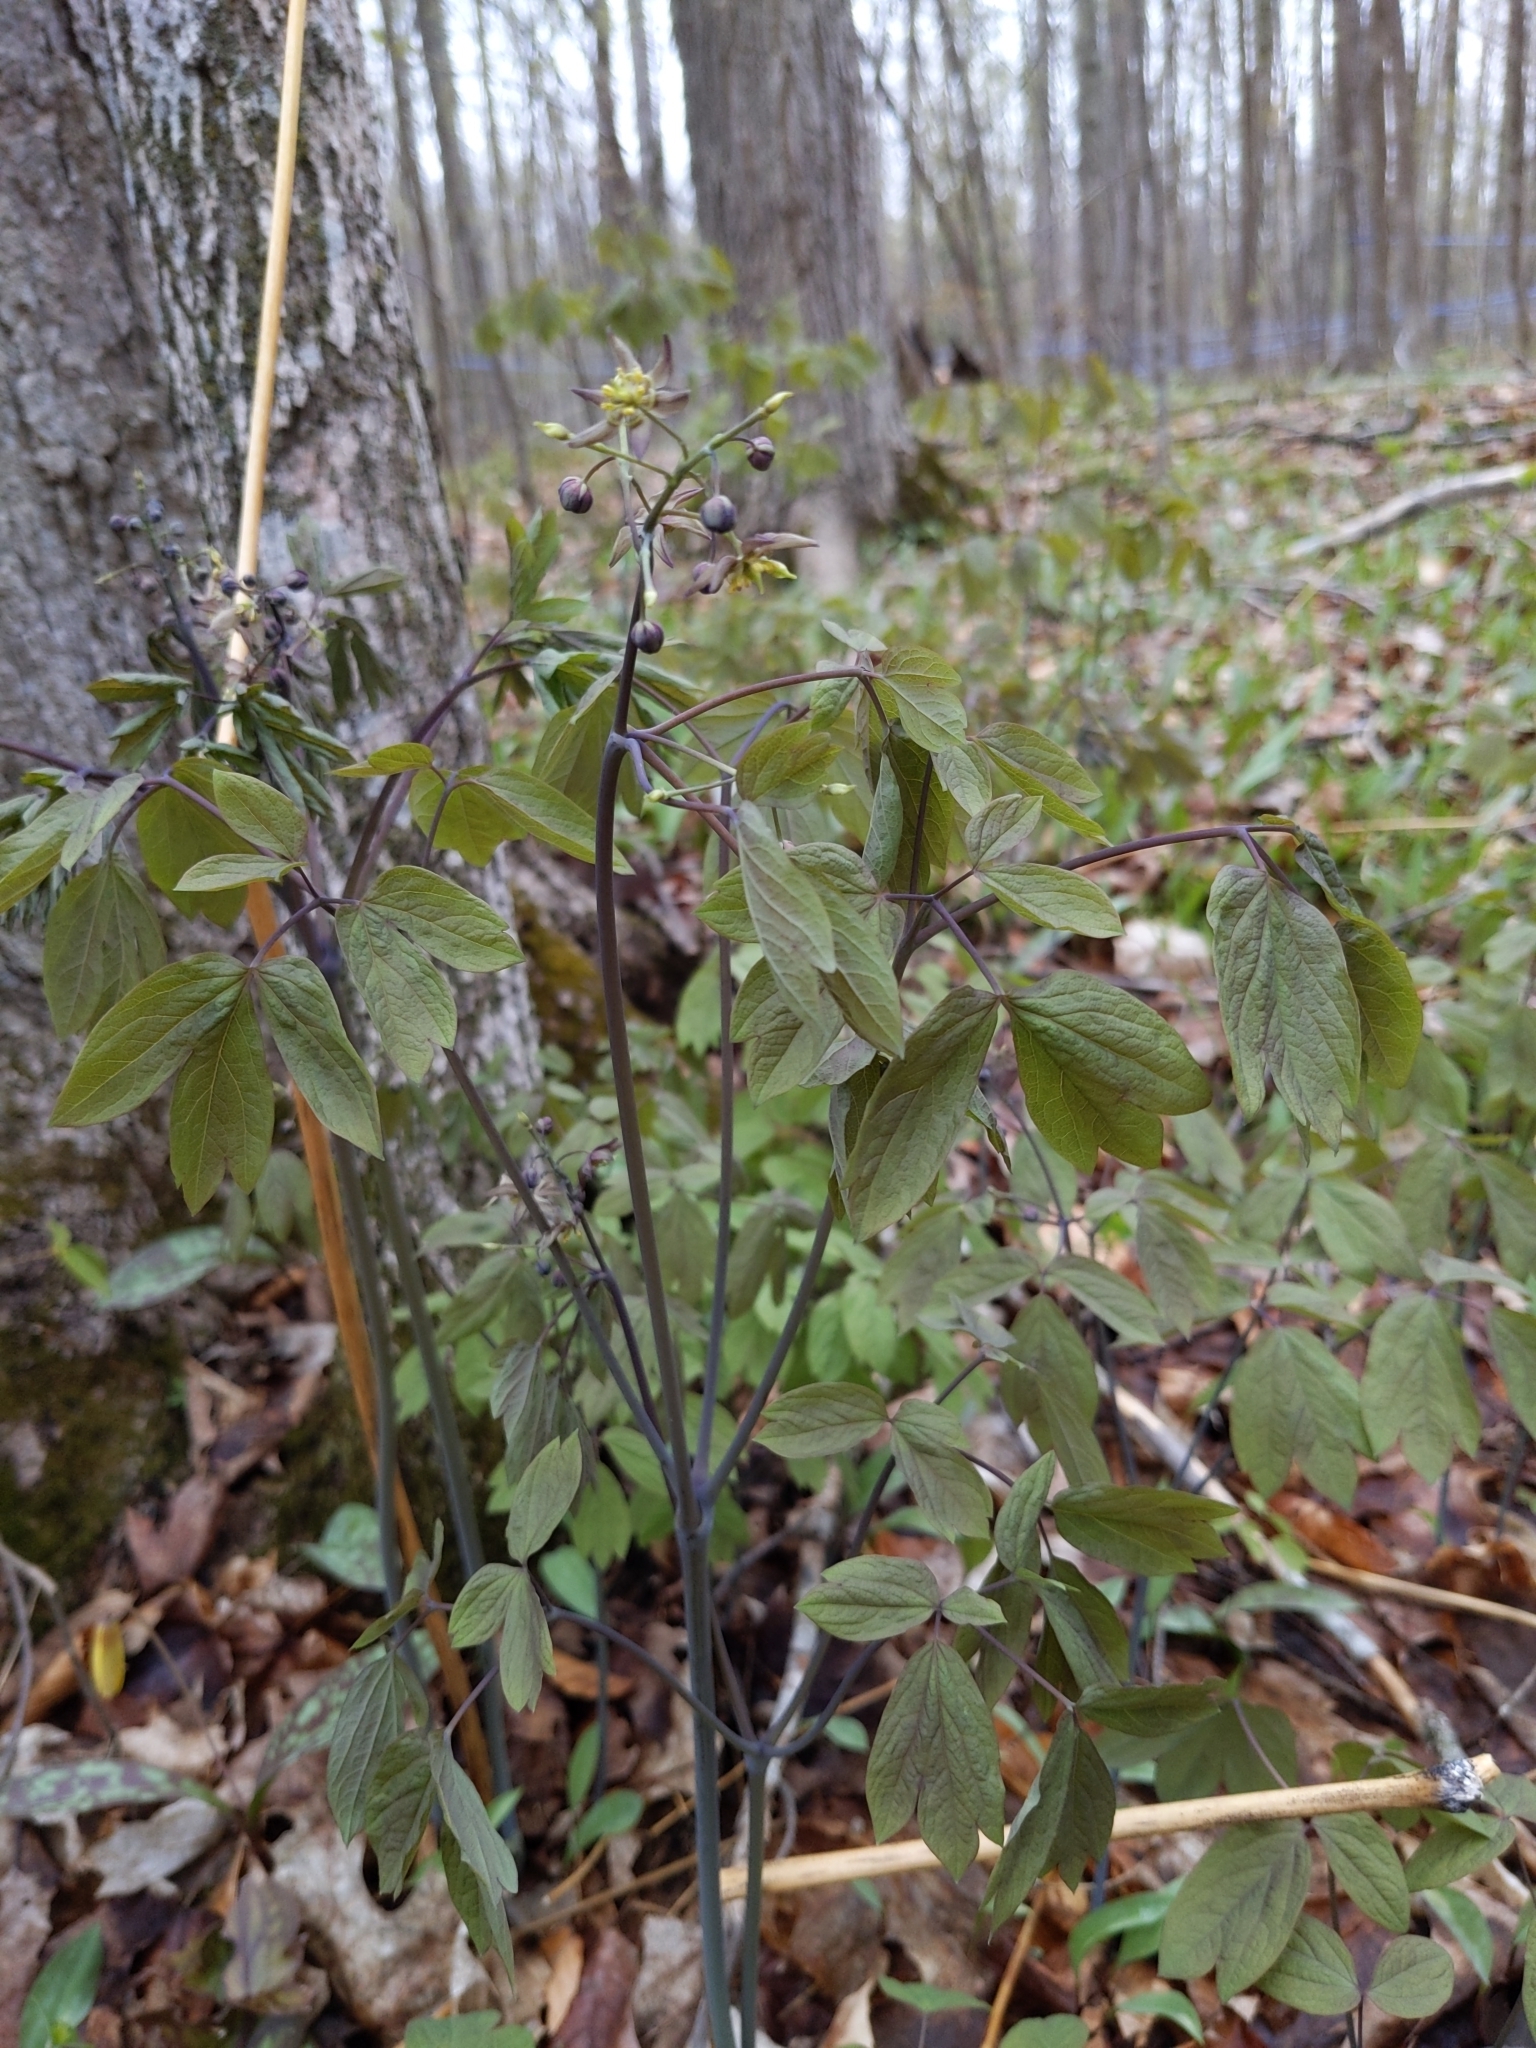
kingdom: Plantae
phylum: Tracheophyta
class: Magnoliopsida
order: Ranunculales
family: Berberidaceae
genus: Caulophyllum
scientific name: Caulophyllum giganteum
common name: Blue cohosh
